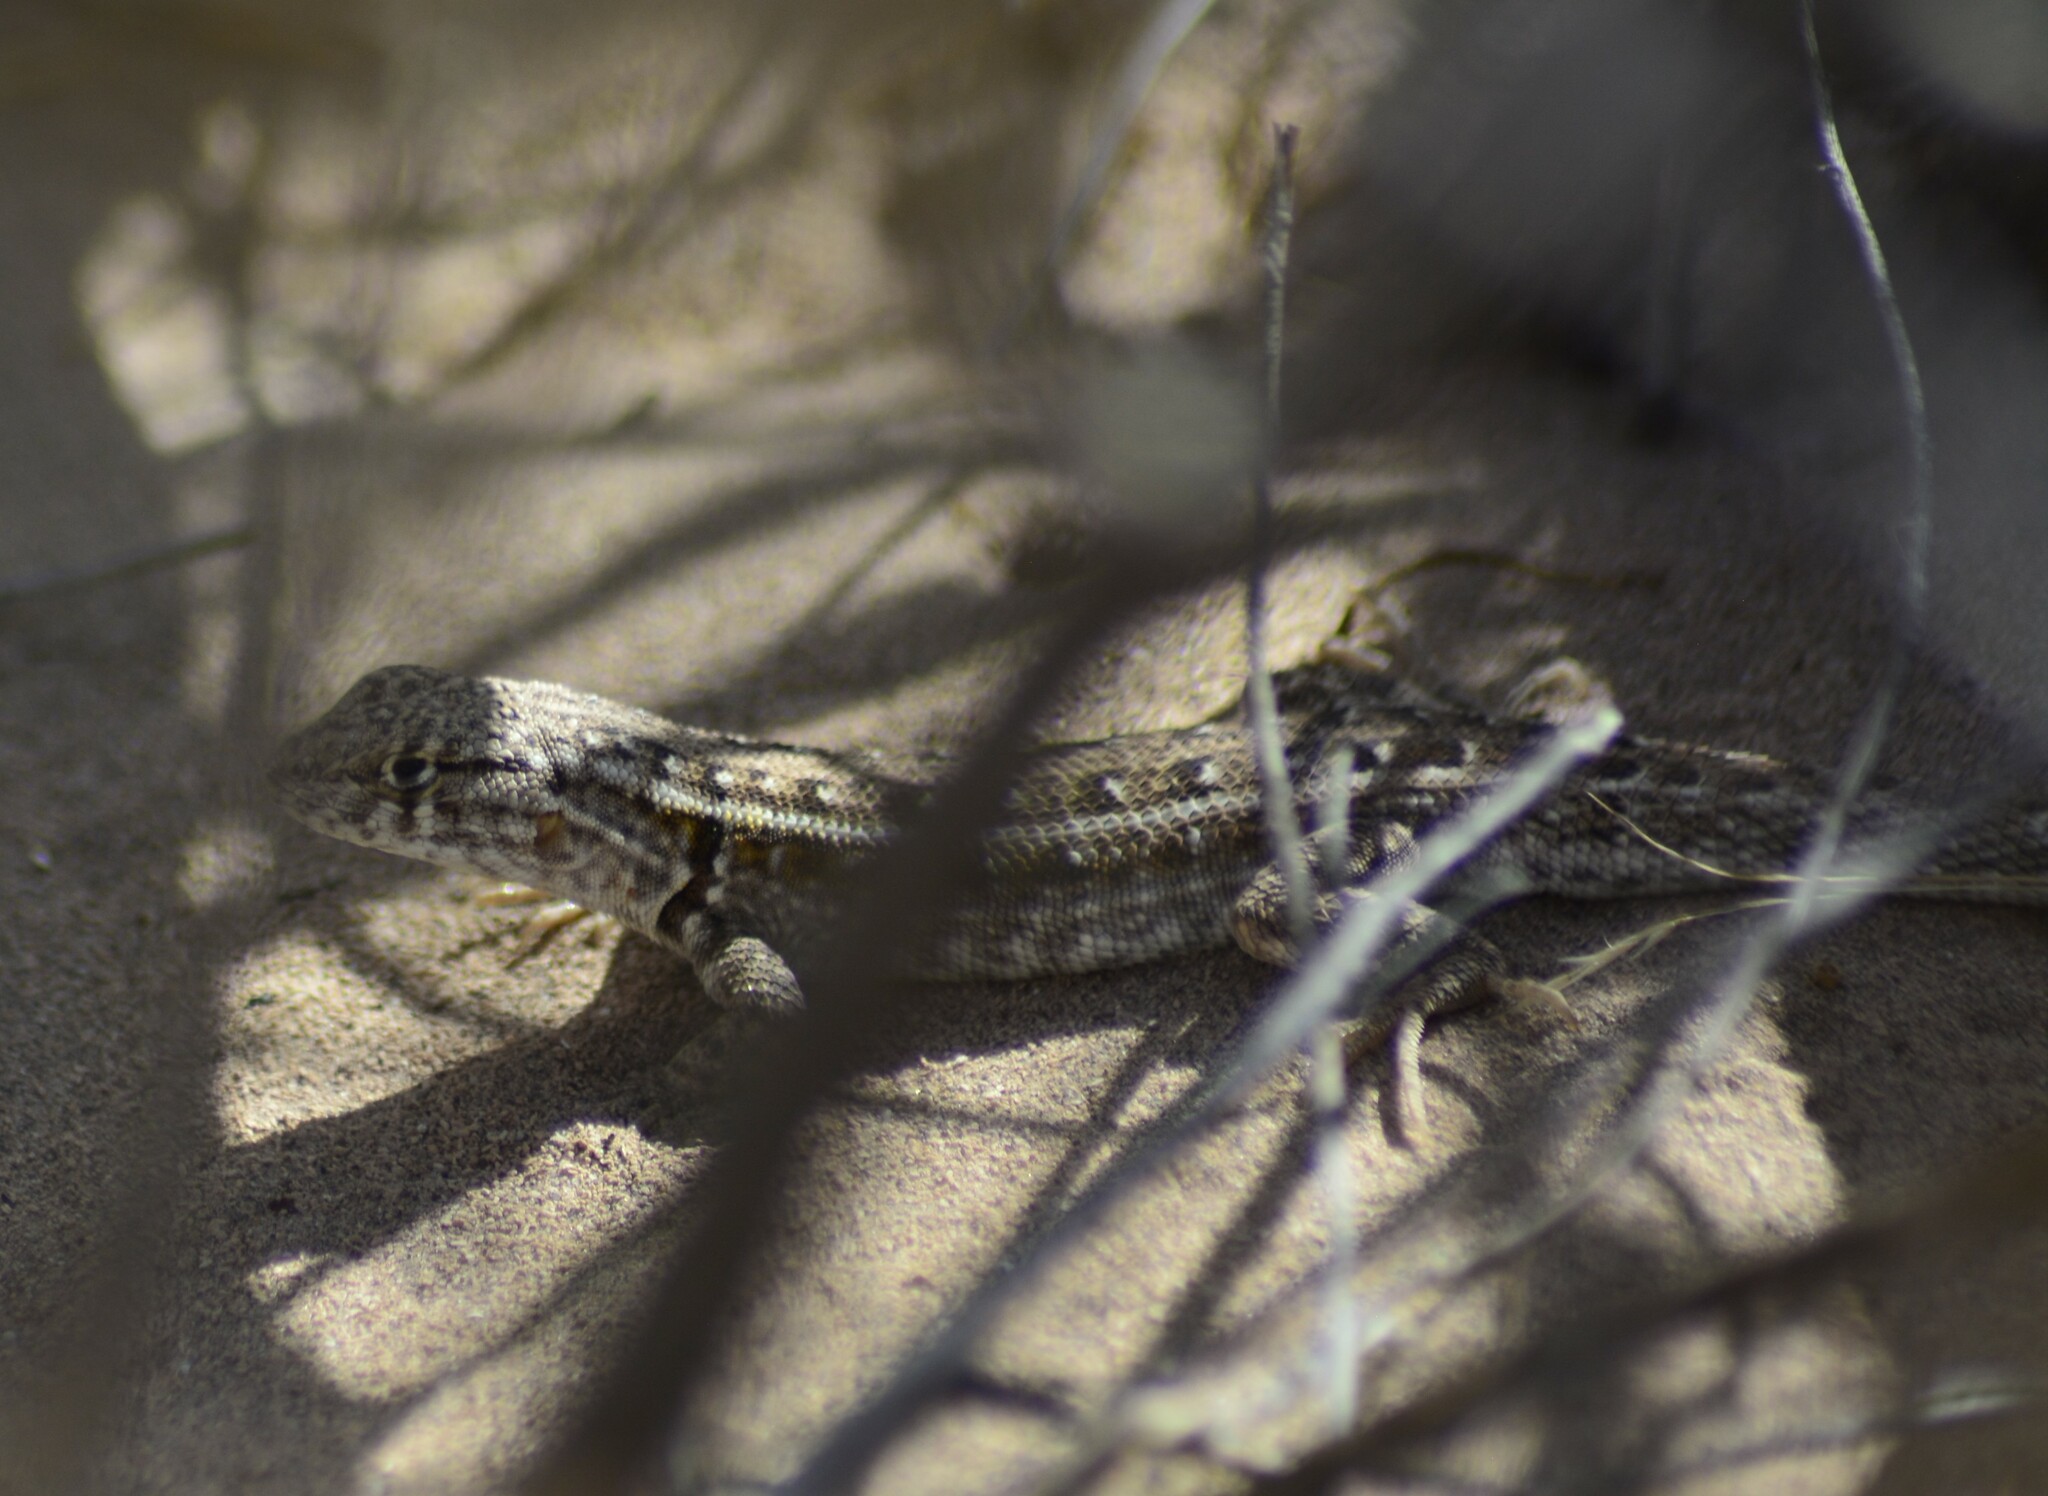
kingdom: Animalia
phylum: Chordata
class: Squamata
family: Liolaemidae
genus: Liolaemus
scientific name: Liolaemus grosseorum
